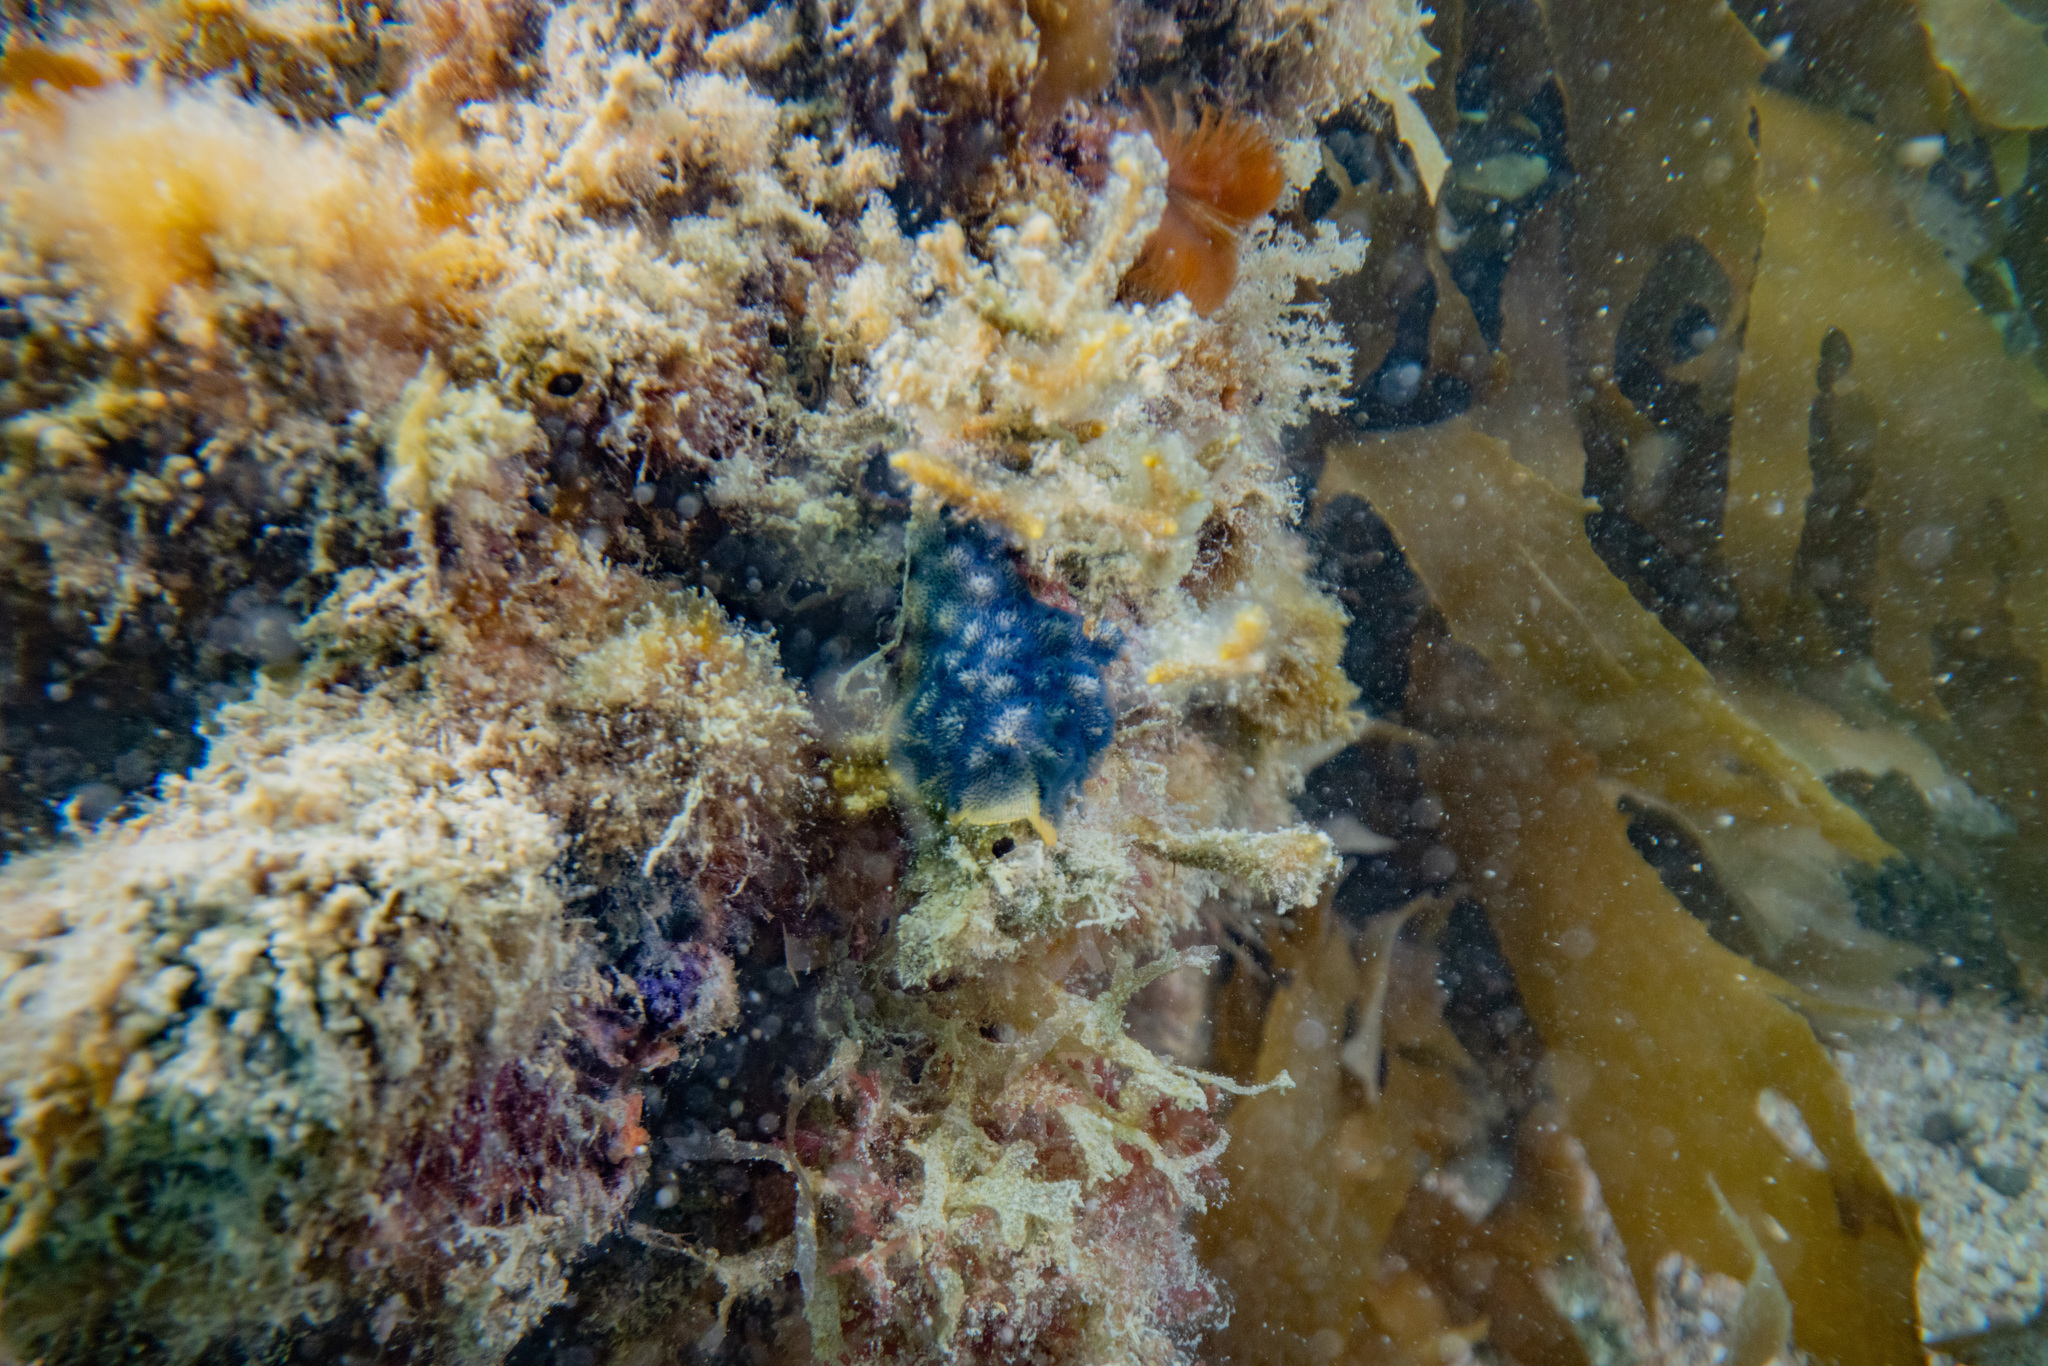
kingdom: Animalia
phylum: Bryozoa
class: Gymnolaemata
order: Cheilostomatida
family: Celleporidae
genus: Celleporaria
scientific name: Celleporaria nodulosa
